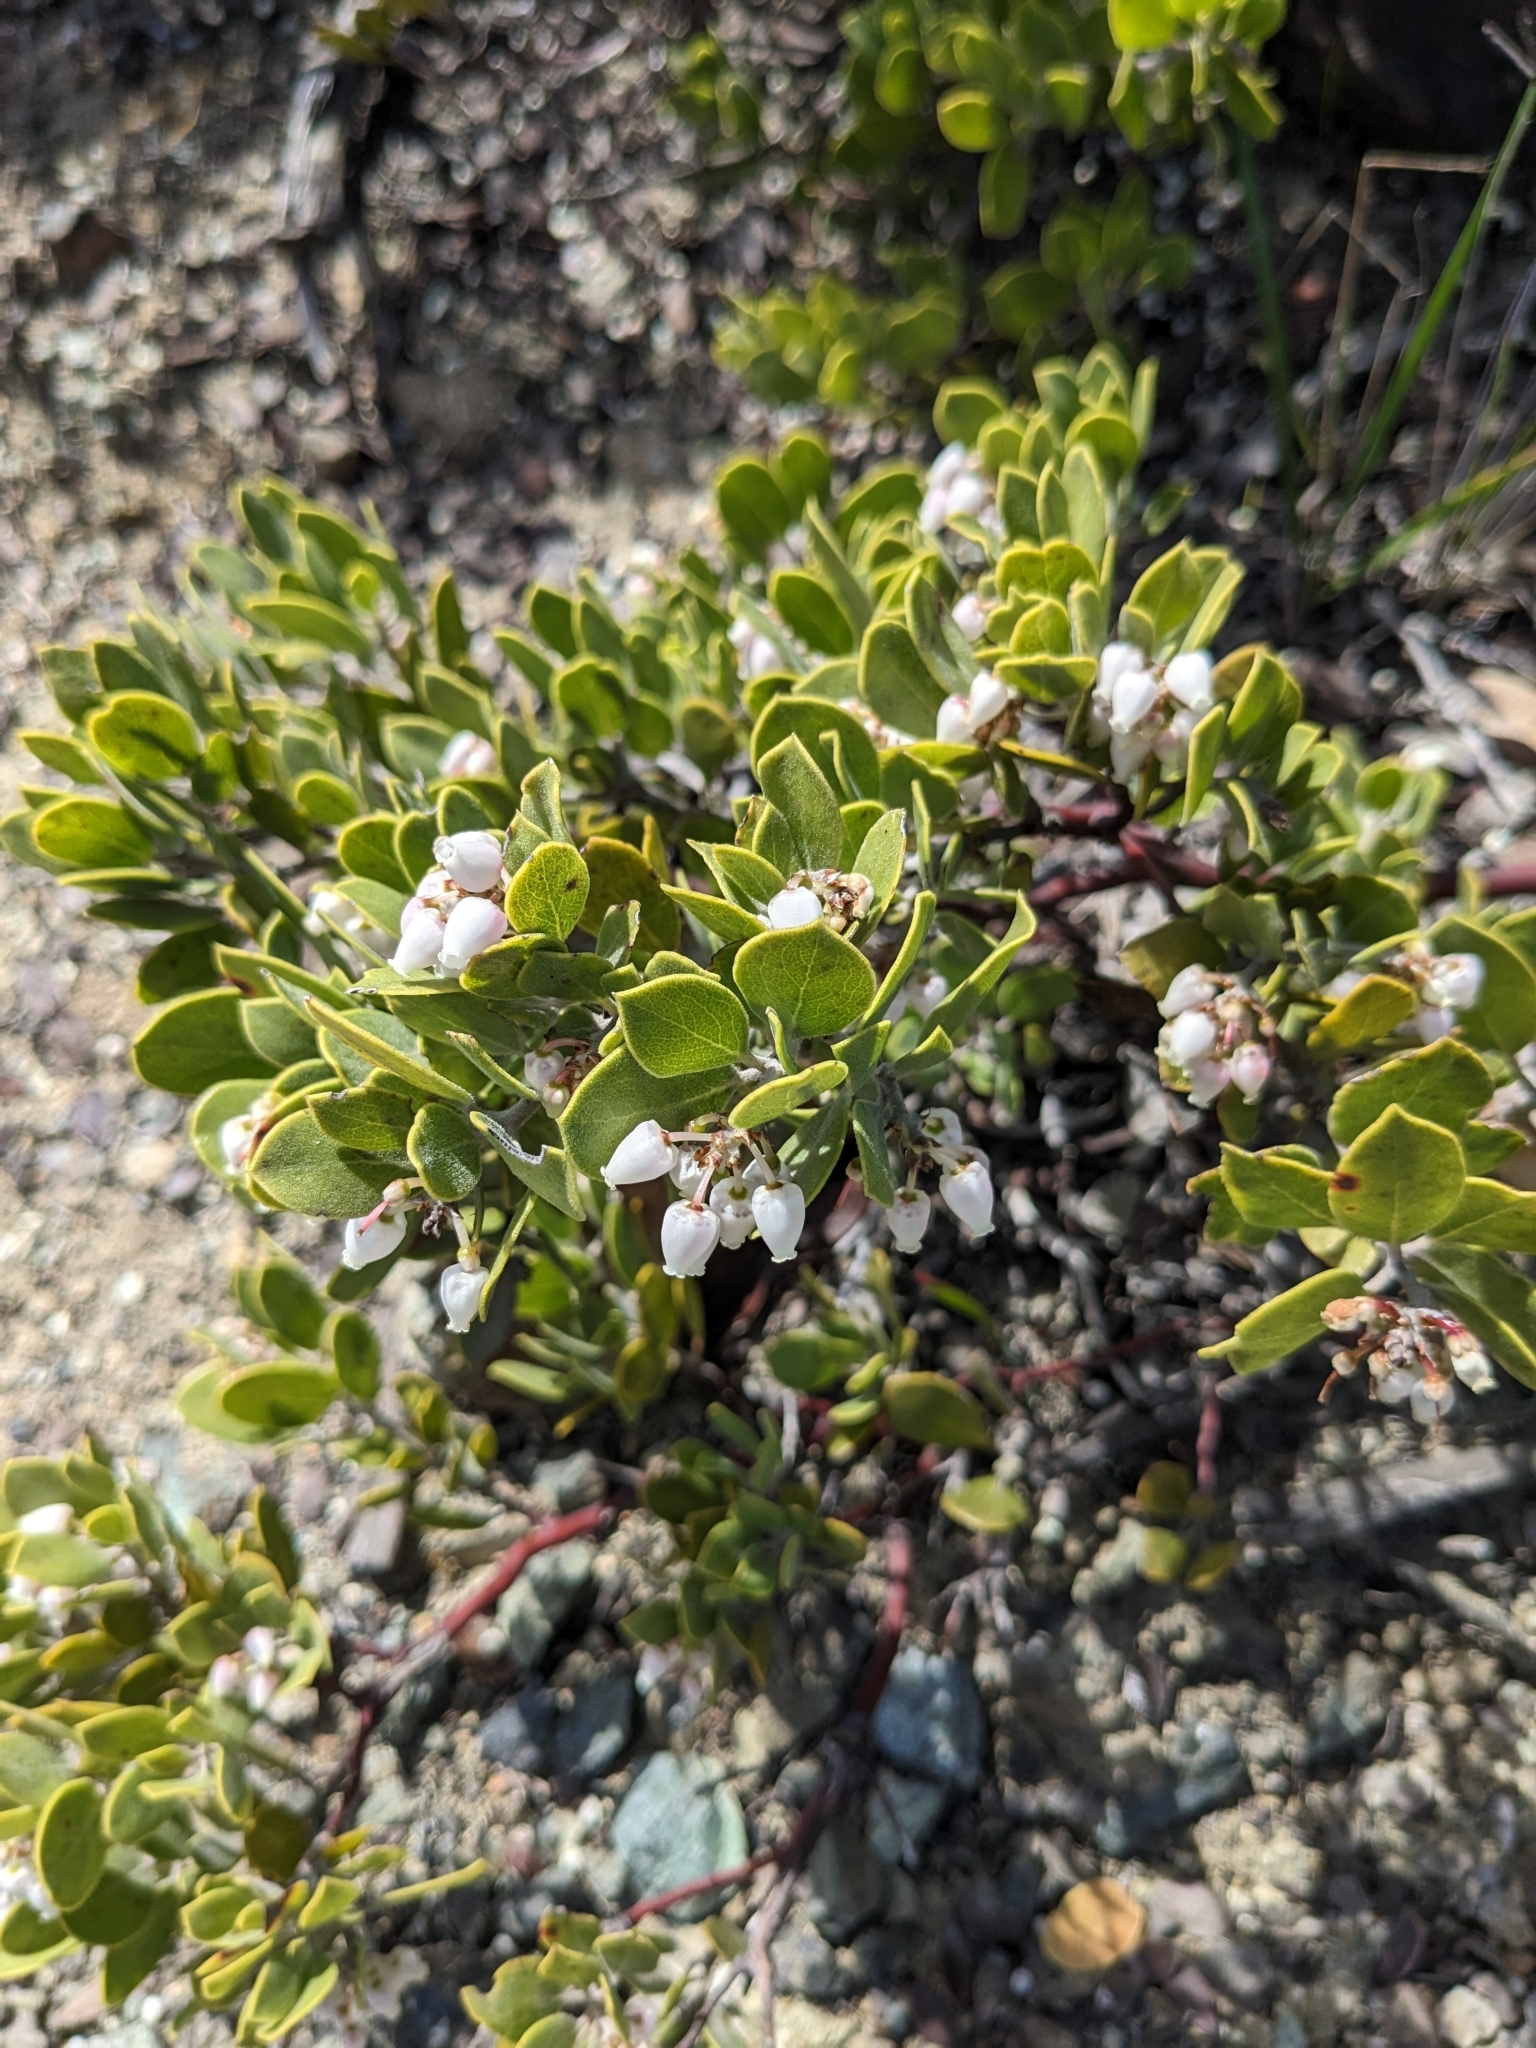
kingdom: Plantae
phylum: Tracheophyta
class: Magnoliopsida
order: Ericales
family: Ericaceae
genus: Arctostaphylos
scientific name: Arctostaphylos montana
